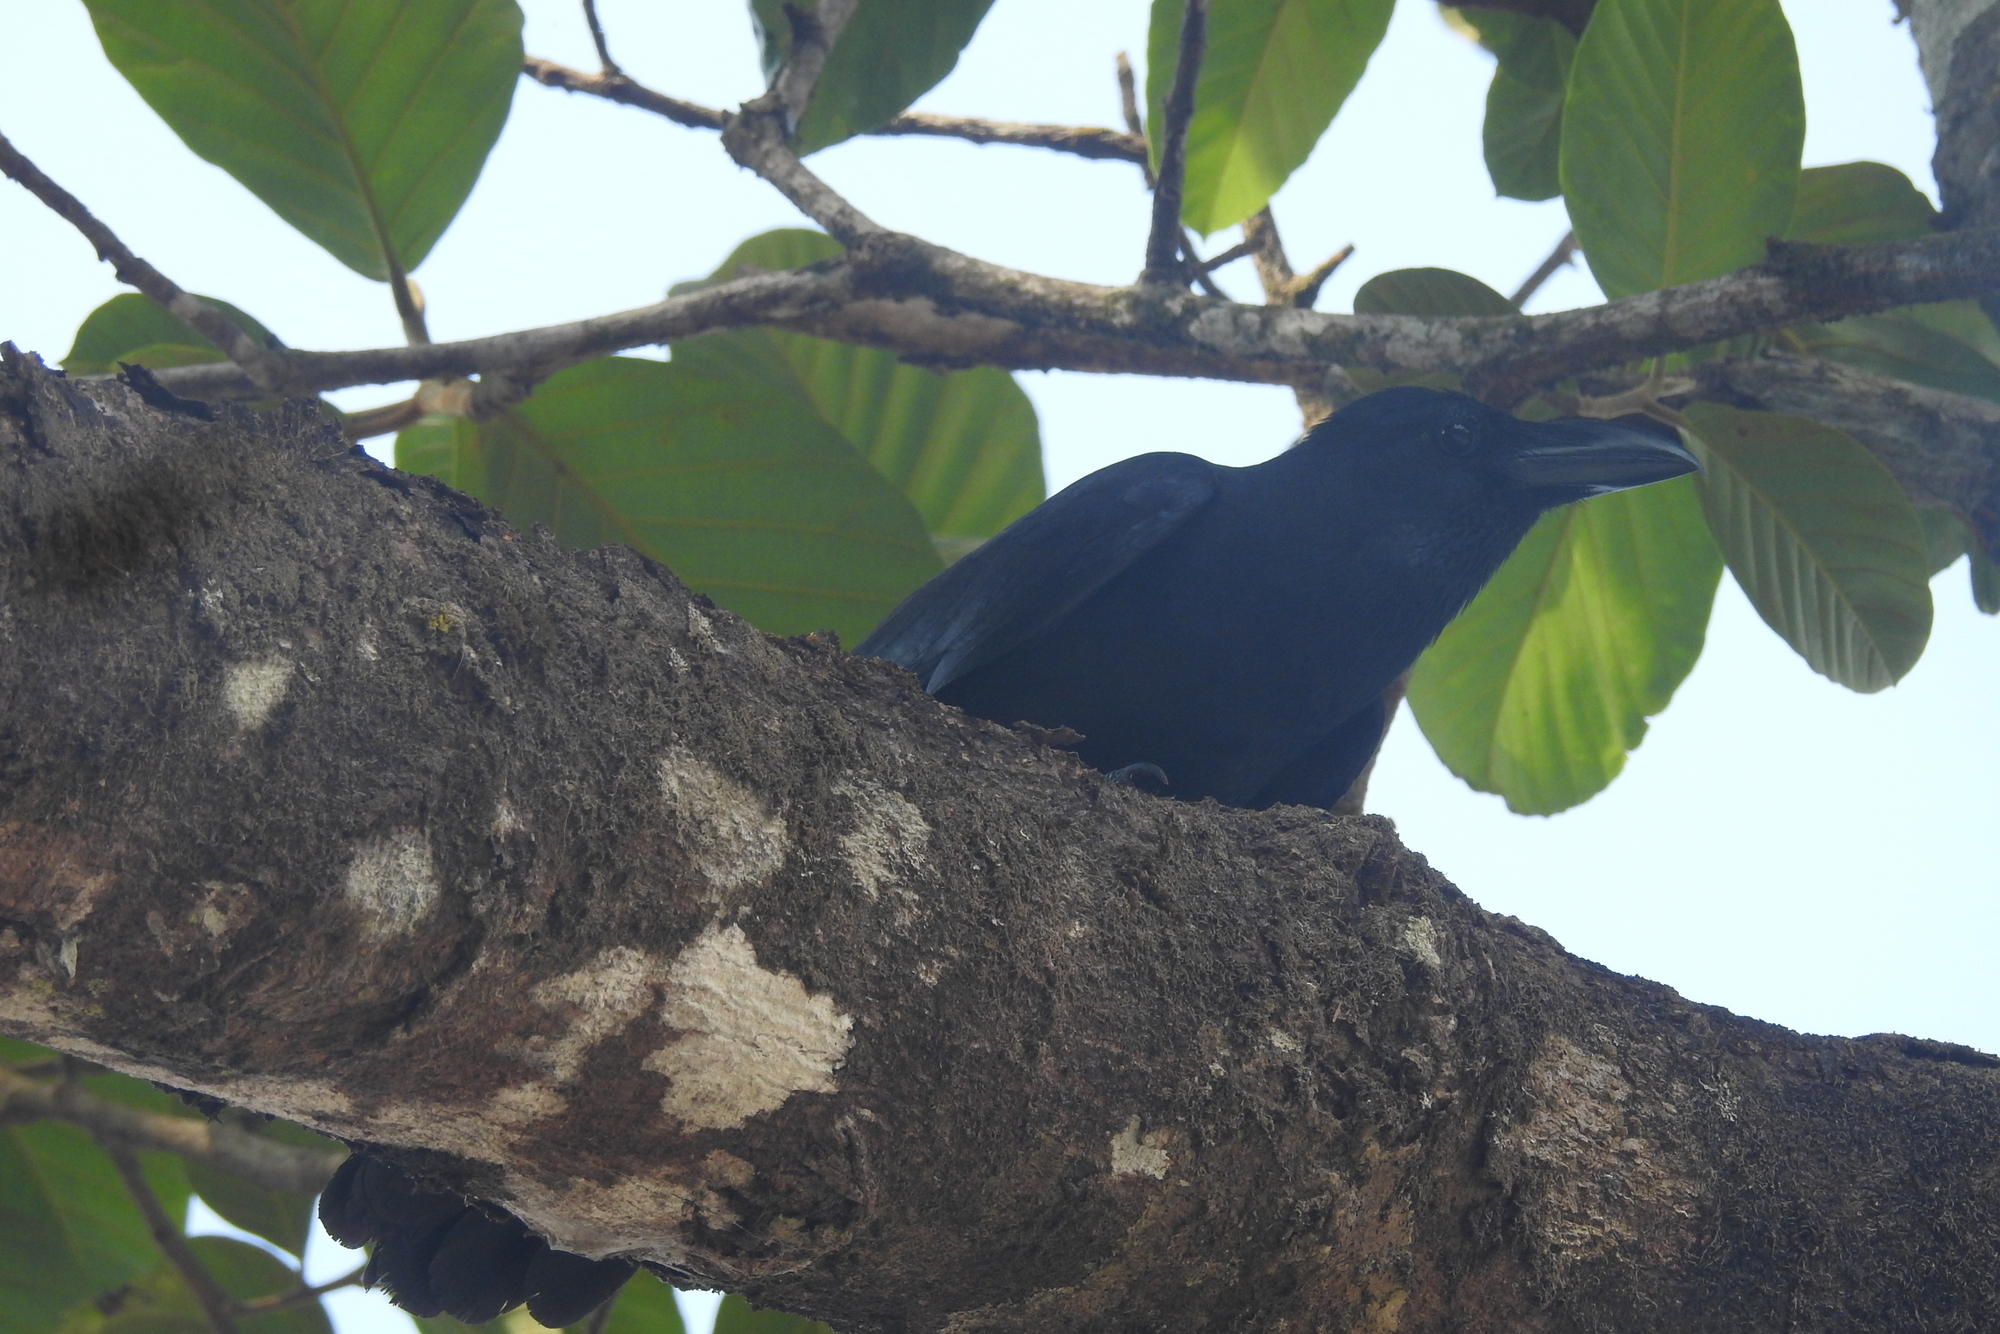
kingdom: Animalia
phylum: Chordata
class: Aves
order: Passeriformes
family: Corvidae
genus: Corvus
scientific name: Corvus macrorhynchos
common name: Large-billed crow
